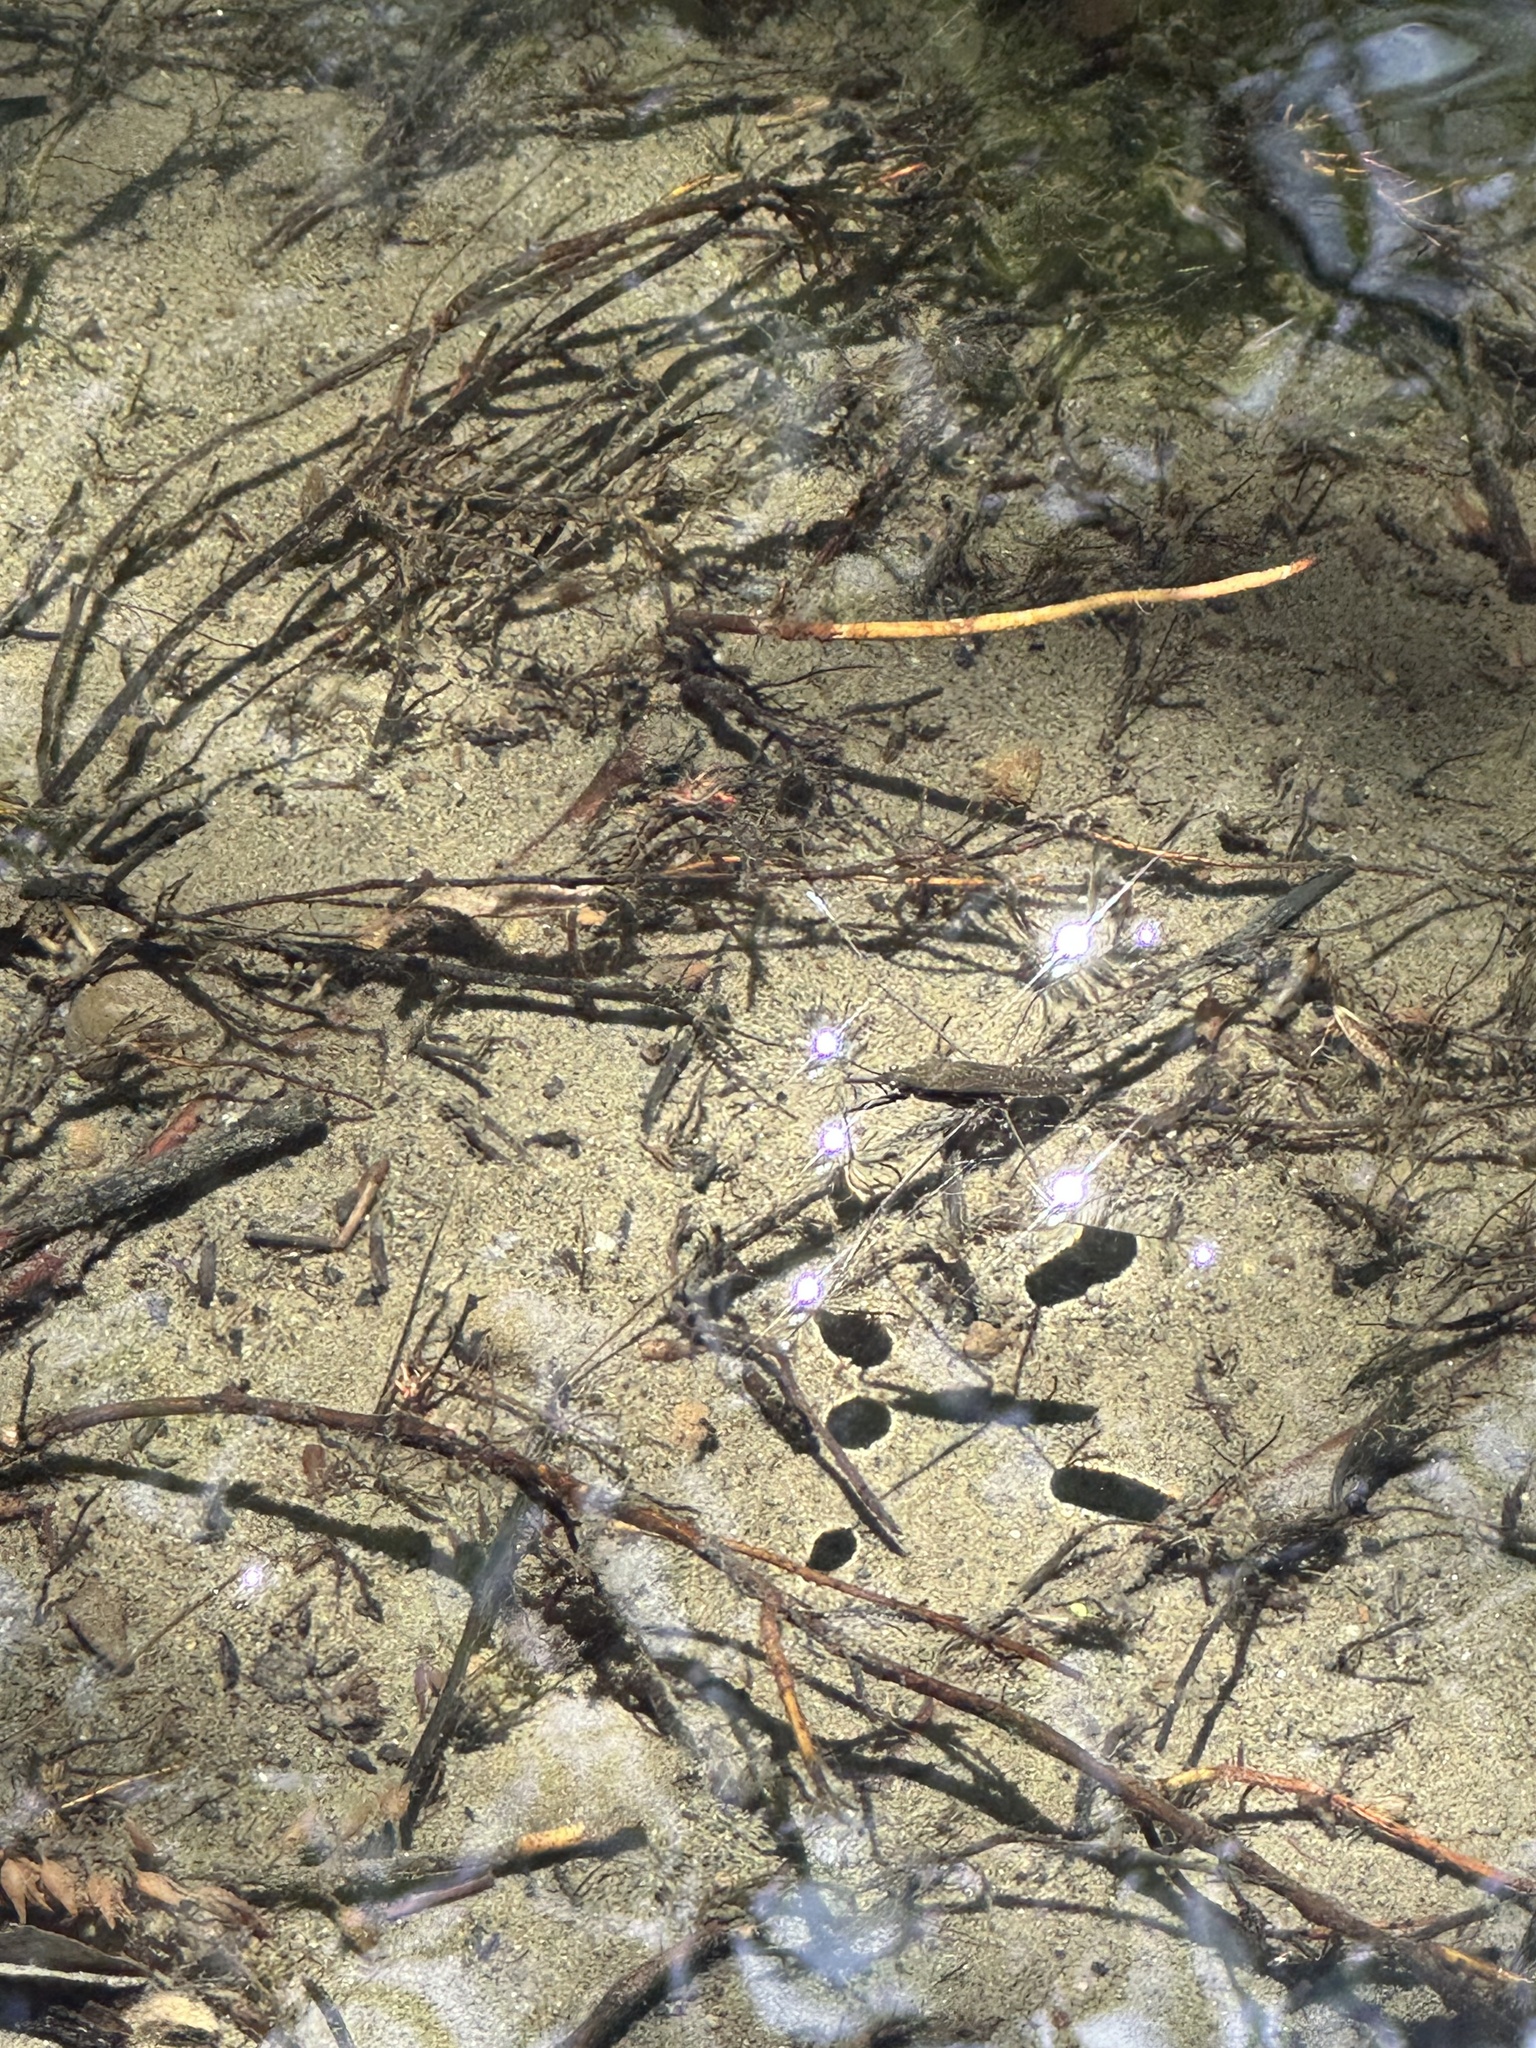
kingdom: Animalia
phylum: Arthropoda
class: Insecta
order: Hemiptera
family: Gerridae
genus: Aquarius
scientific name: Aquarius remigis
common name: Common water strider
